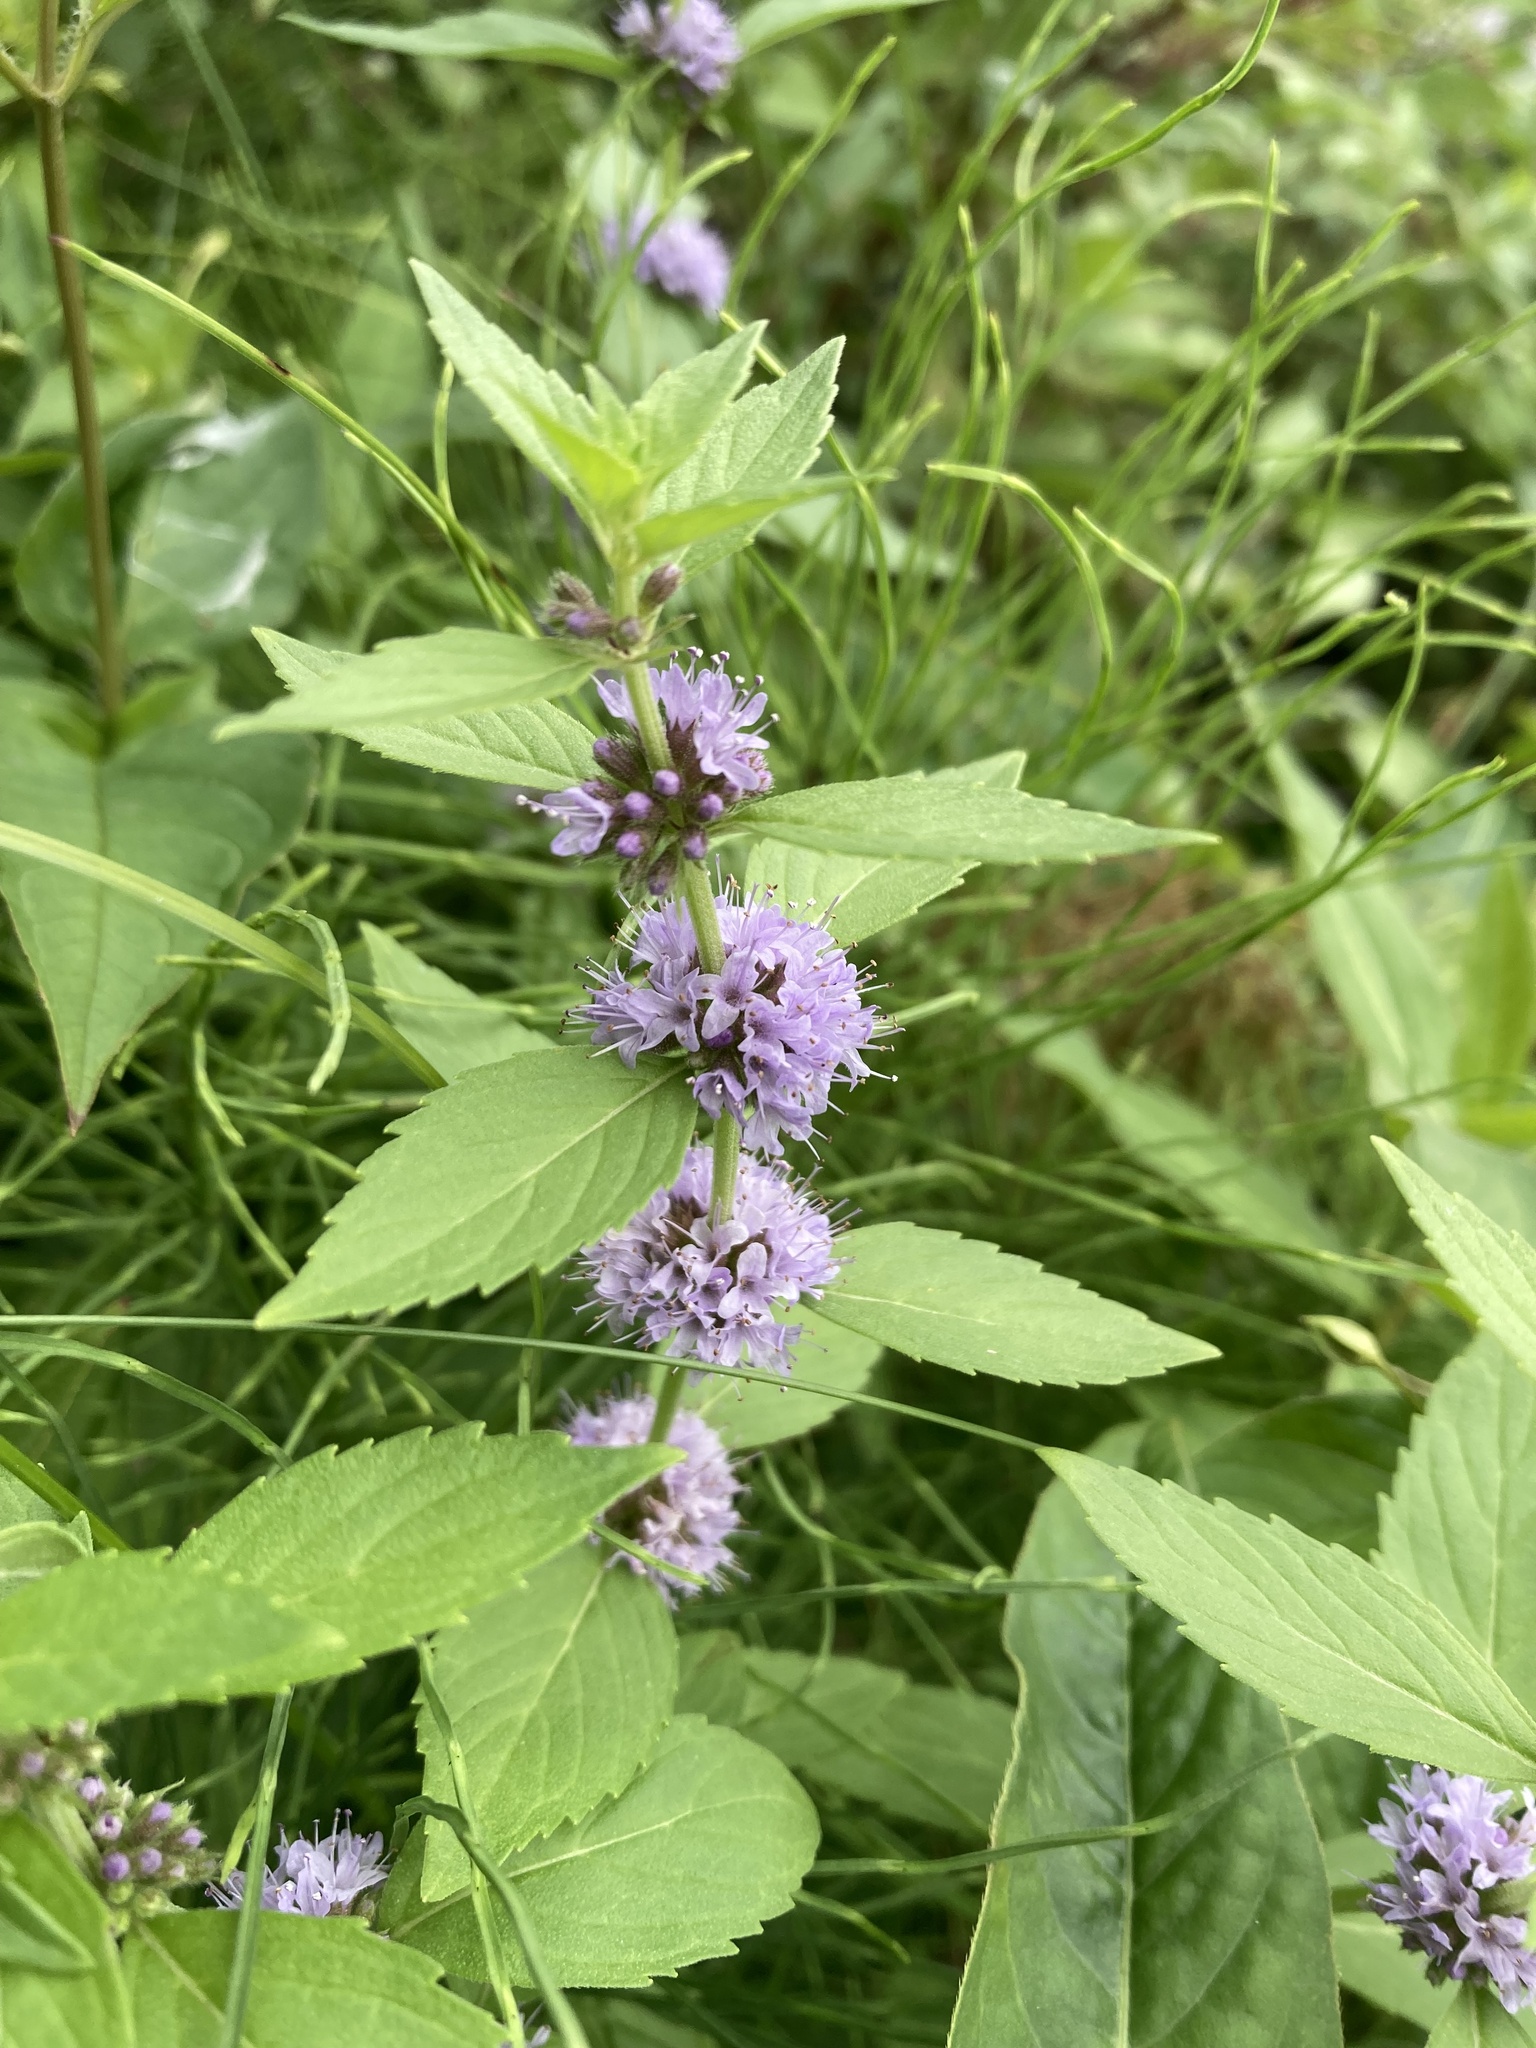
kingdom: Plantae
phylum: Tracheophyta
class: Magnoliopsida
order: Lamiales
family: Lamiaceae
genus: Mentha
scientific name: Mentha canadensis
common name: American corn mint
